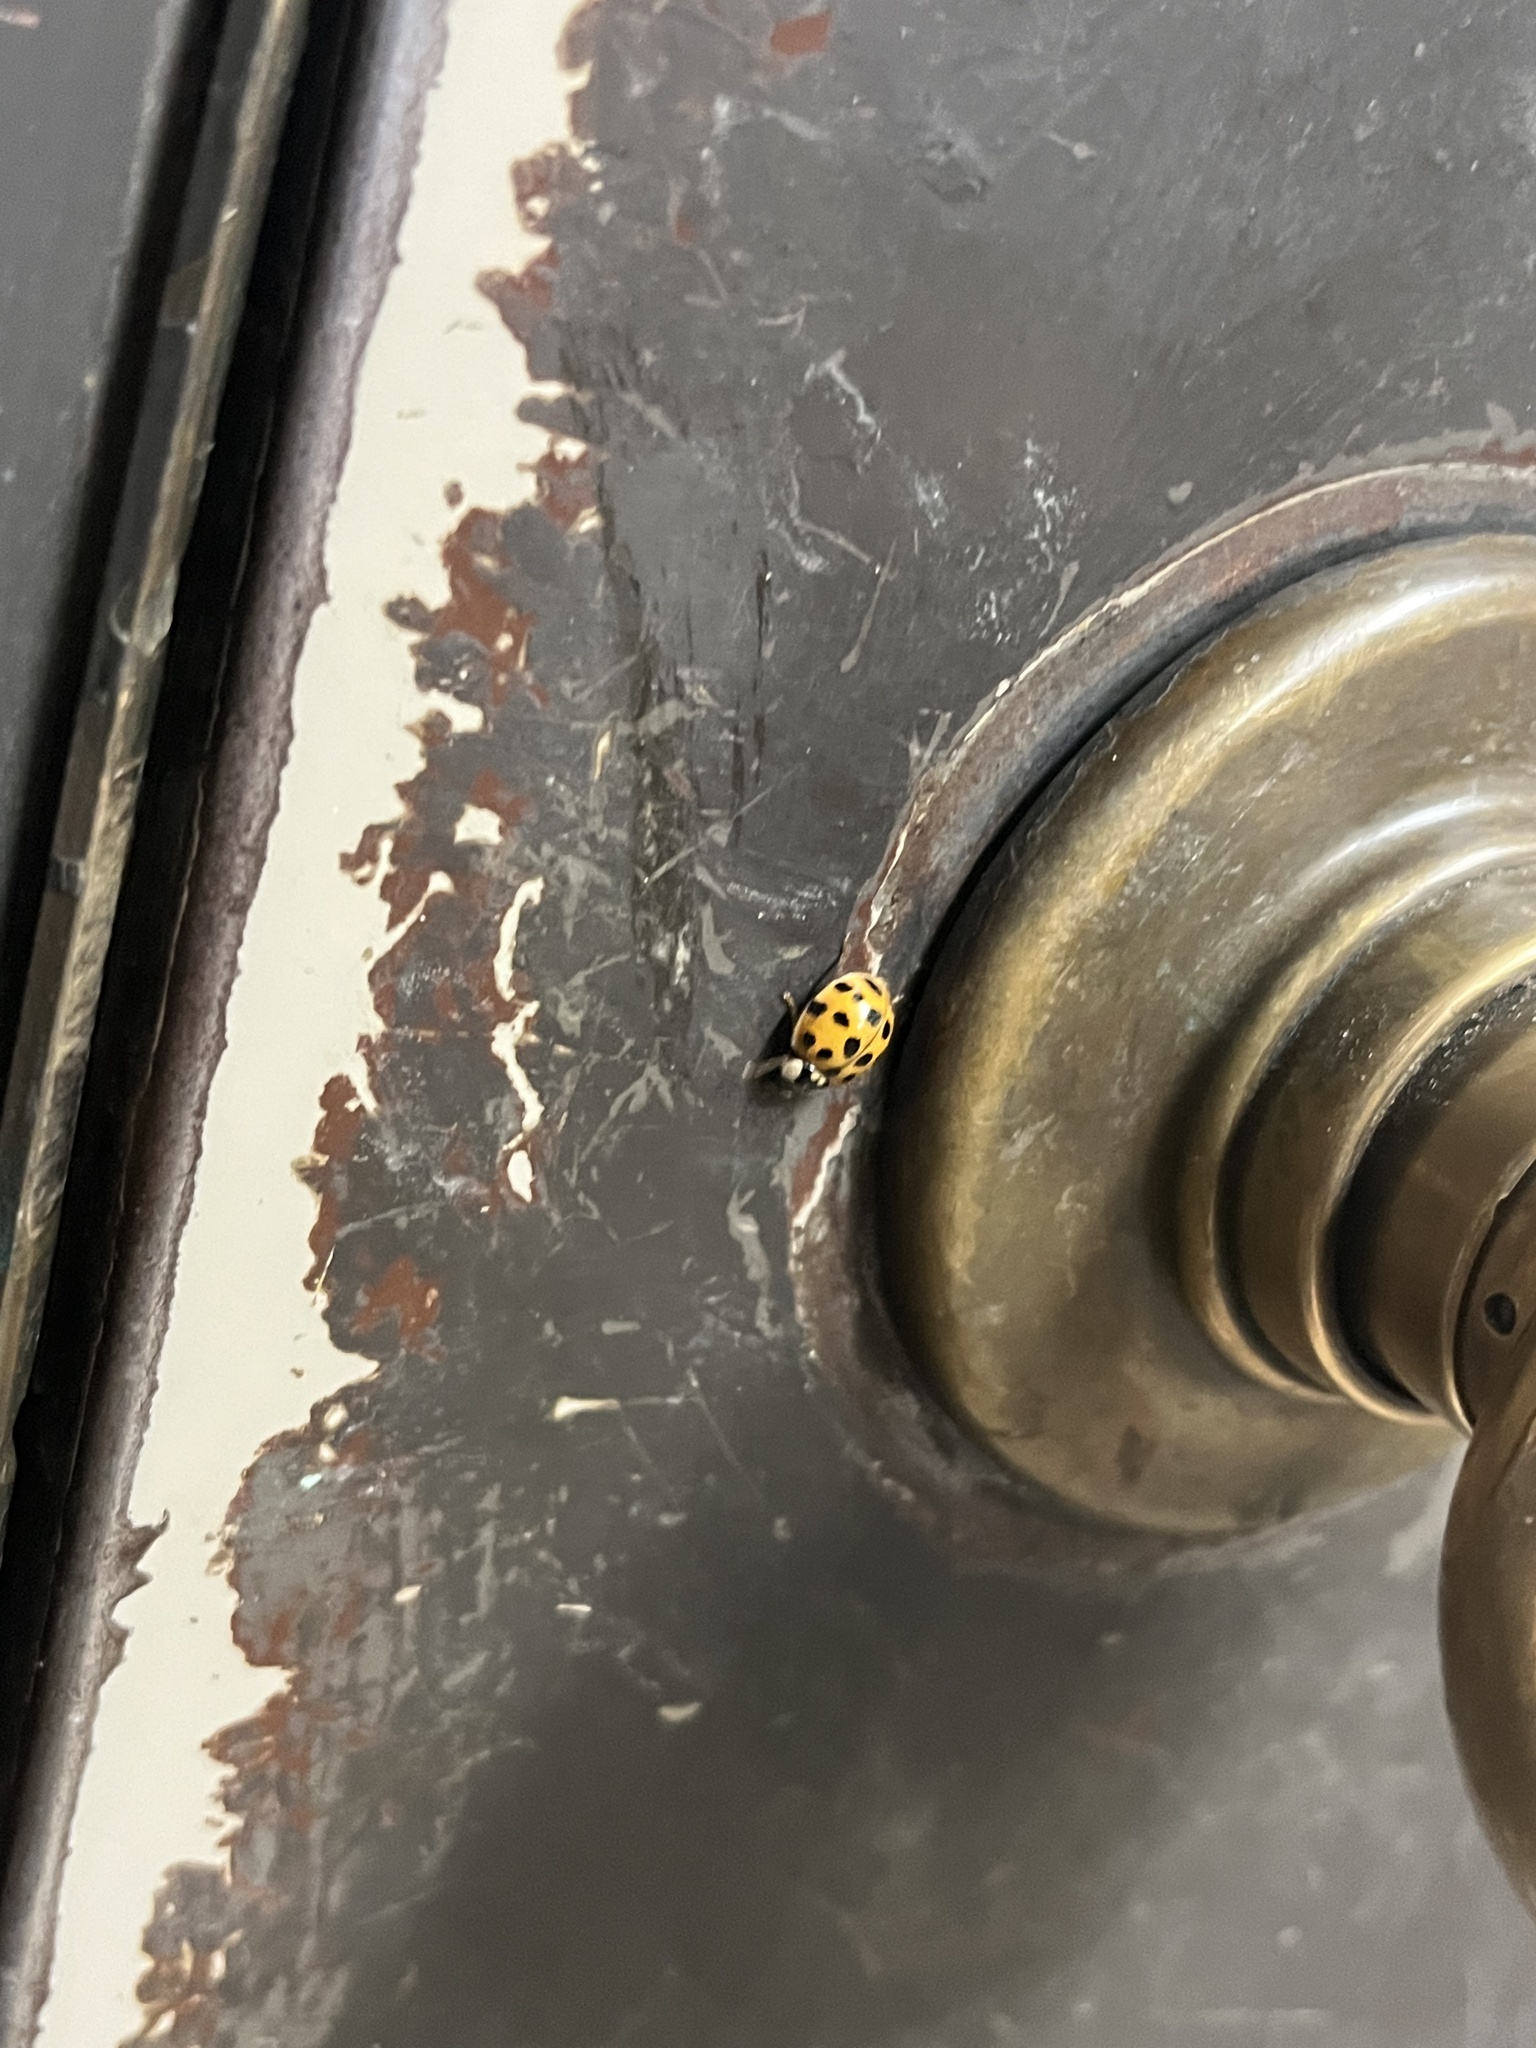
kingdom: Animalia
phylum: Arthropoda
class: Insecta
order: Coleoptera
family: Coccinellidae
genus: Harmonia
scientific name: Harmonia axyridis
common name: Harlequin ladybird
